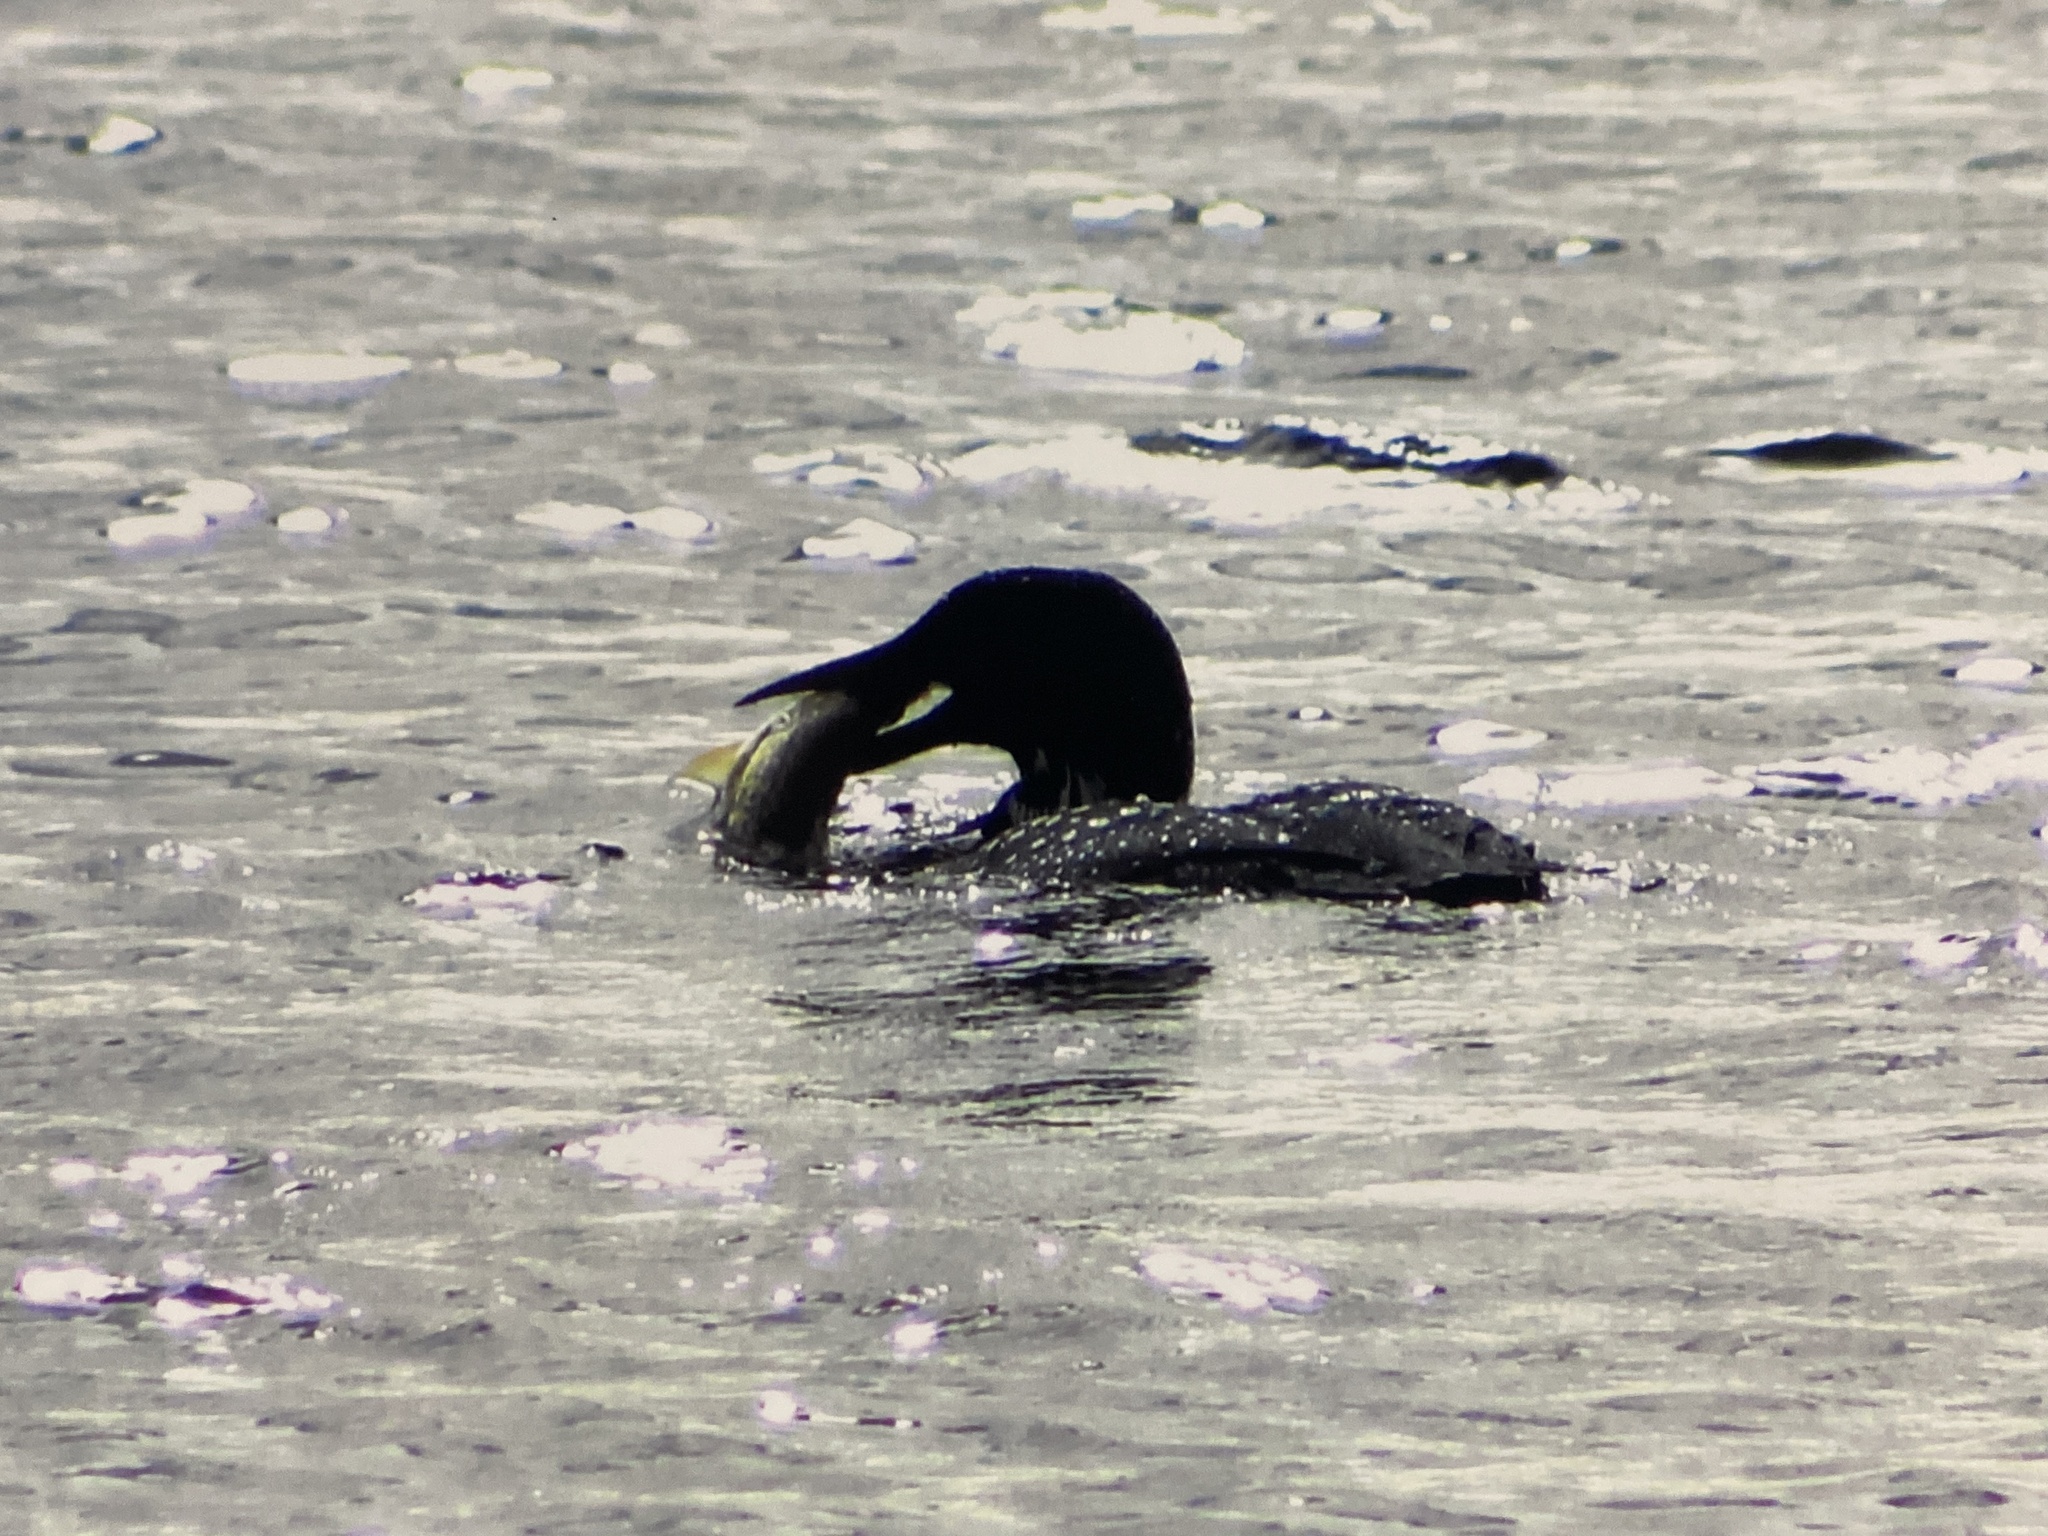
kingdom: Animalia
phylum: Chordata
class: Aves
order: Gaviiformes
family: Gaviidae
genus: Gavia
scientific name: Gavia immer
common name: Common loon
